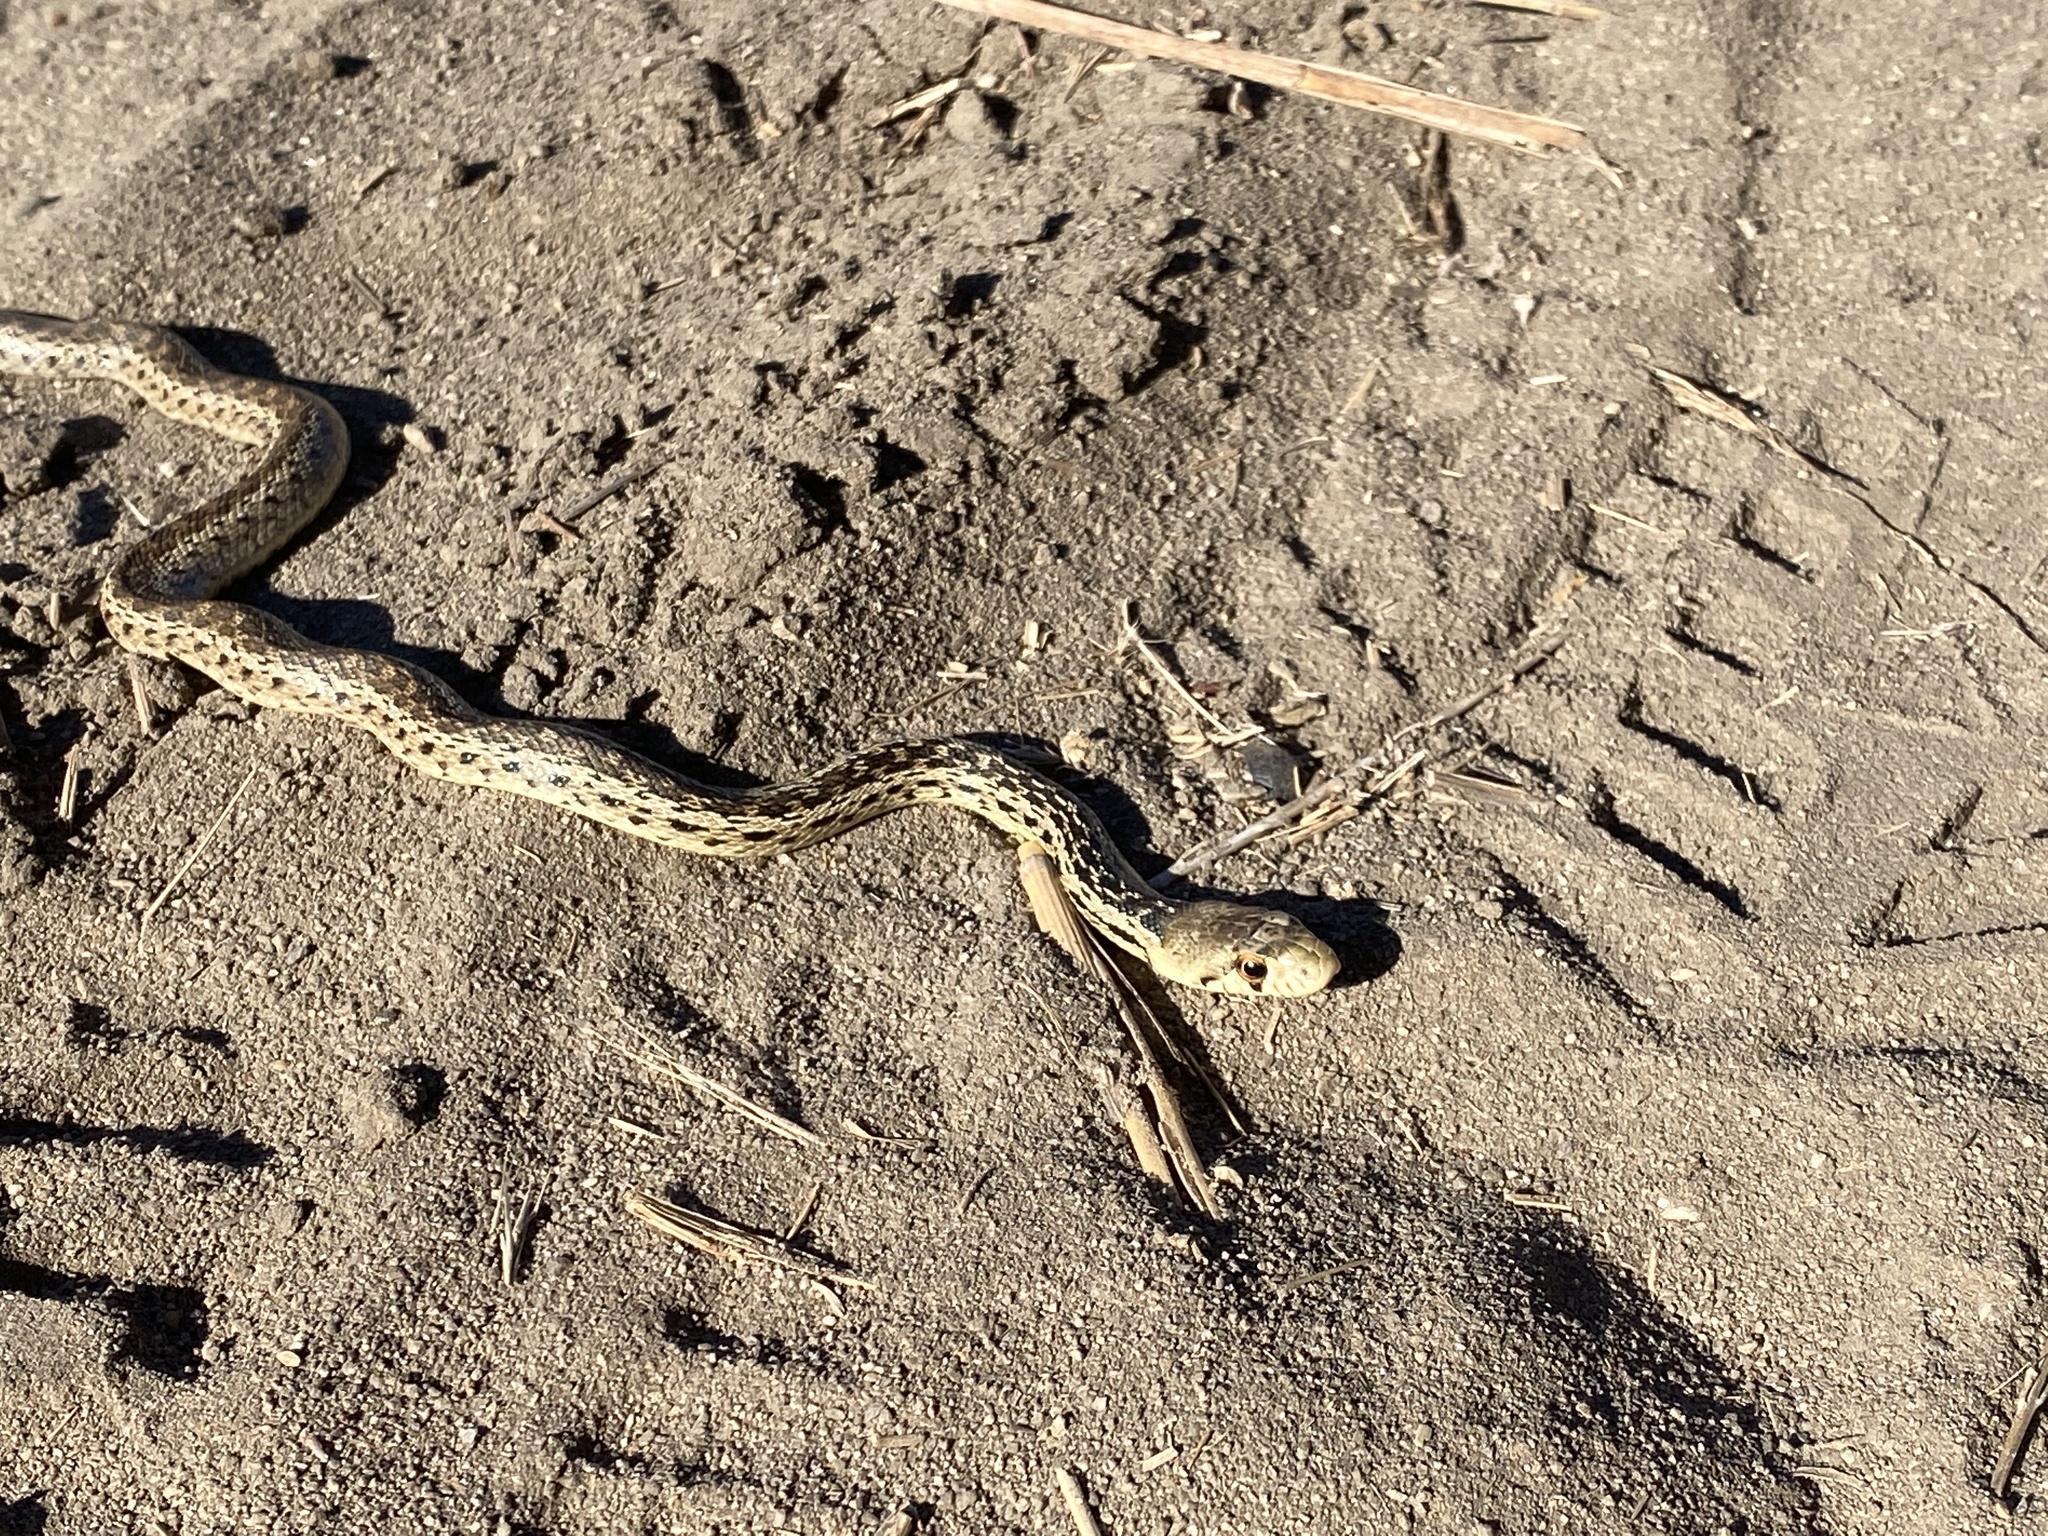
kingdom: Animalia
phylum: Chordata
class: Squamata
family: Colubridae
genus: Pituophis
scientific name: Pituophis catenifer
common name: Gopher snake
